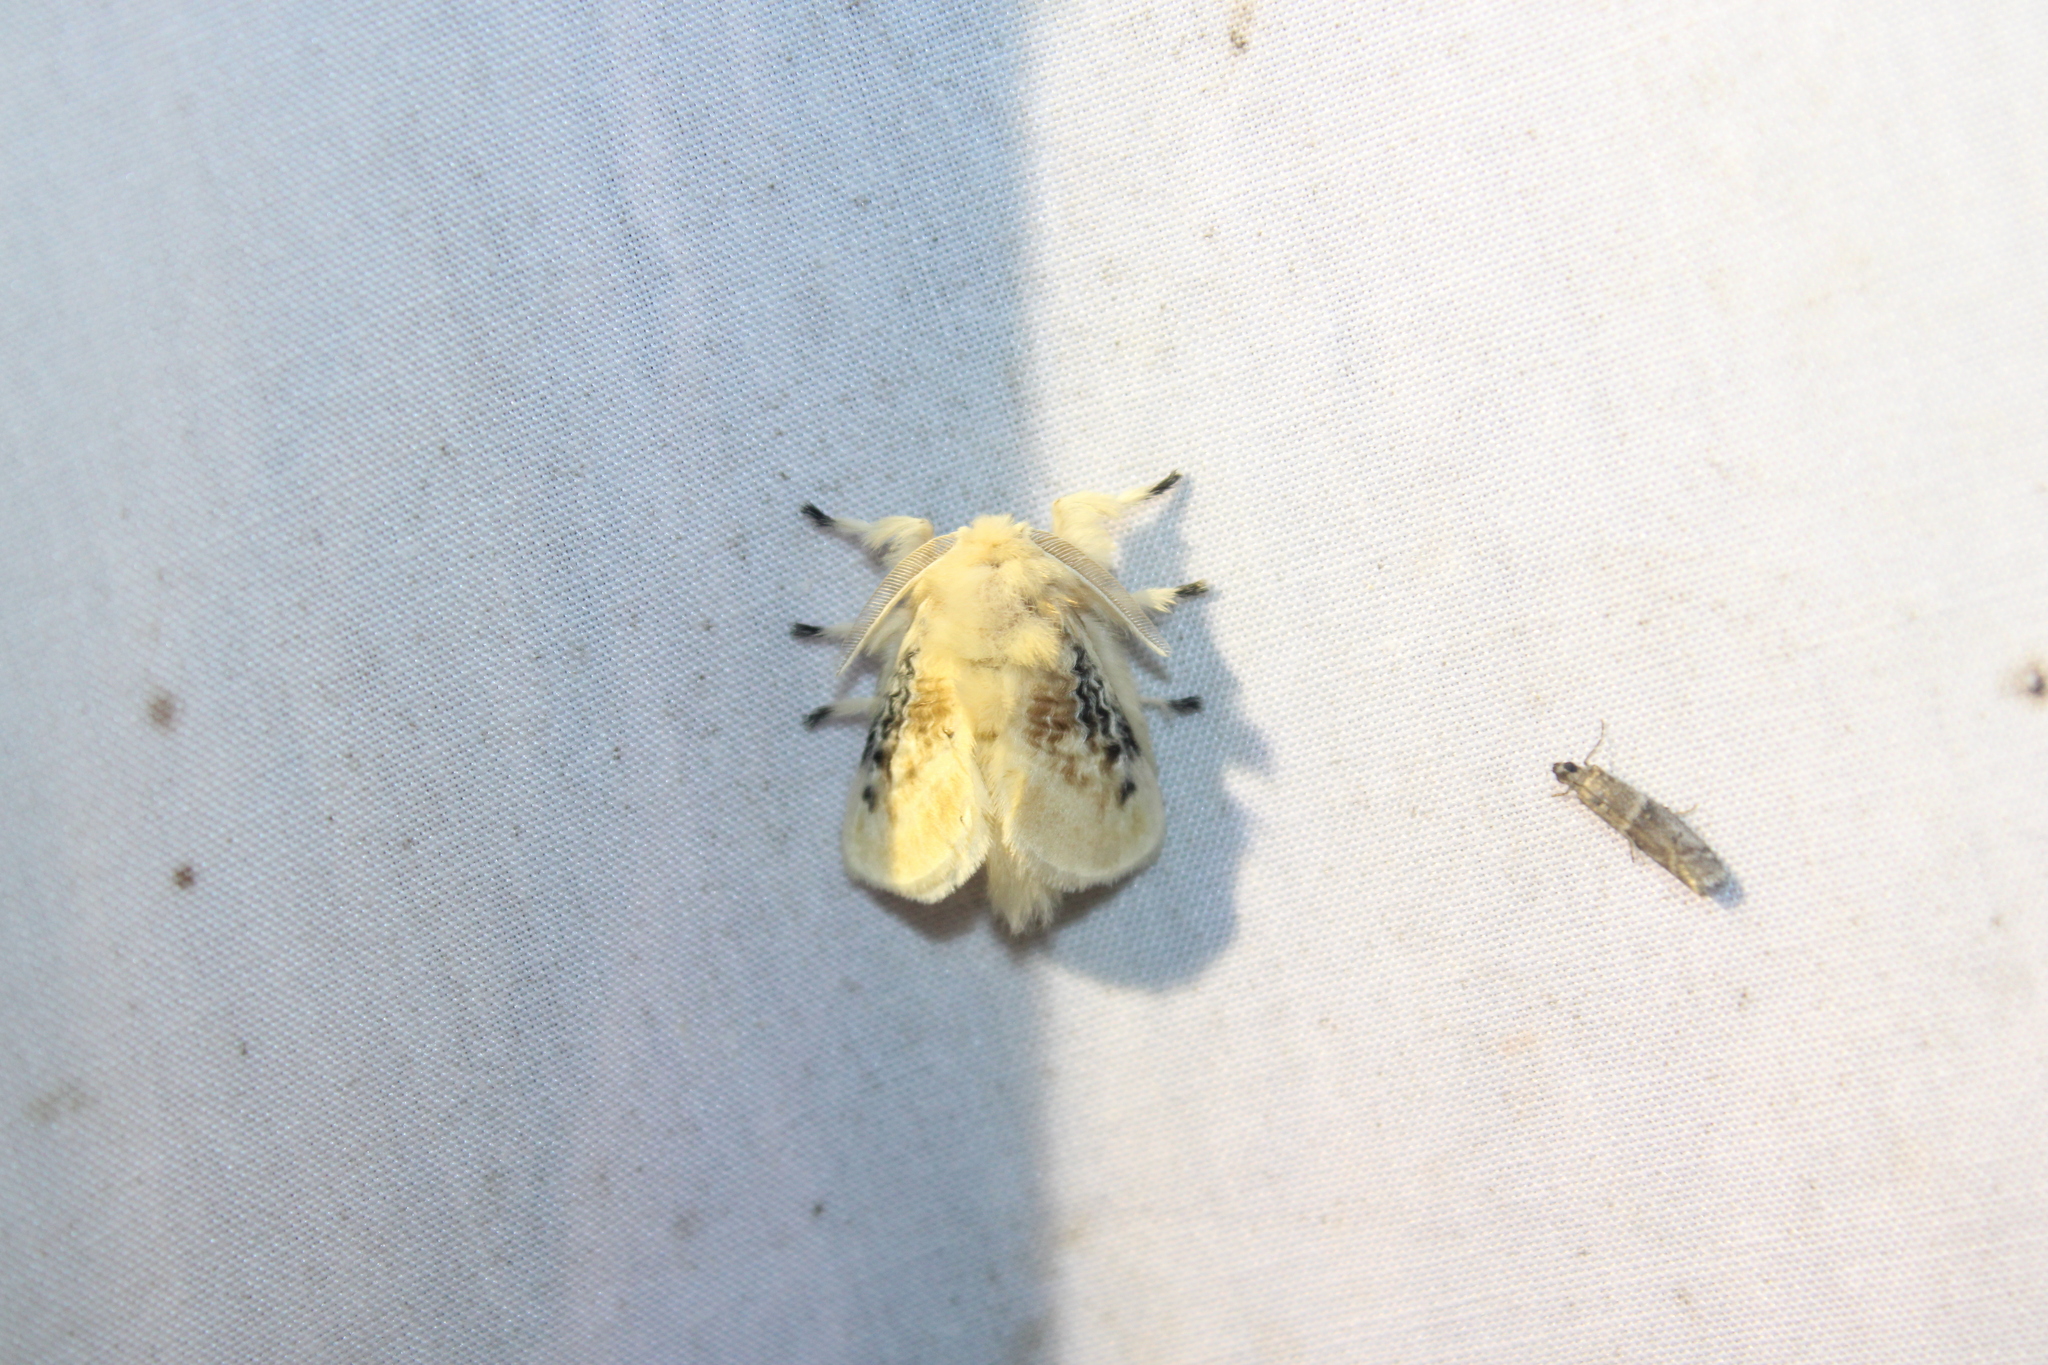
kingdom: Animalia
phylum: Arthropoda
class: Insecta
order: Lepidoptera
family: Megalopygidae
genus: Megalopyge
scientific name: Megalopyge crispata
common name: Black-waved flannel moth
